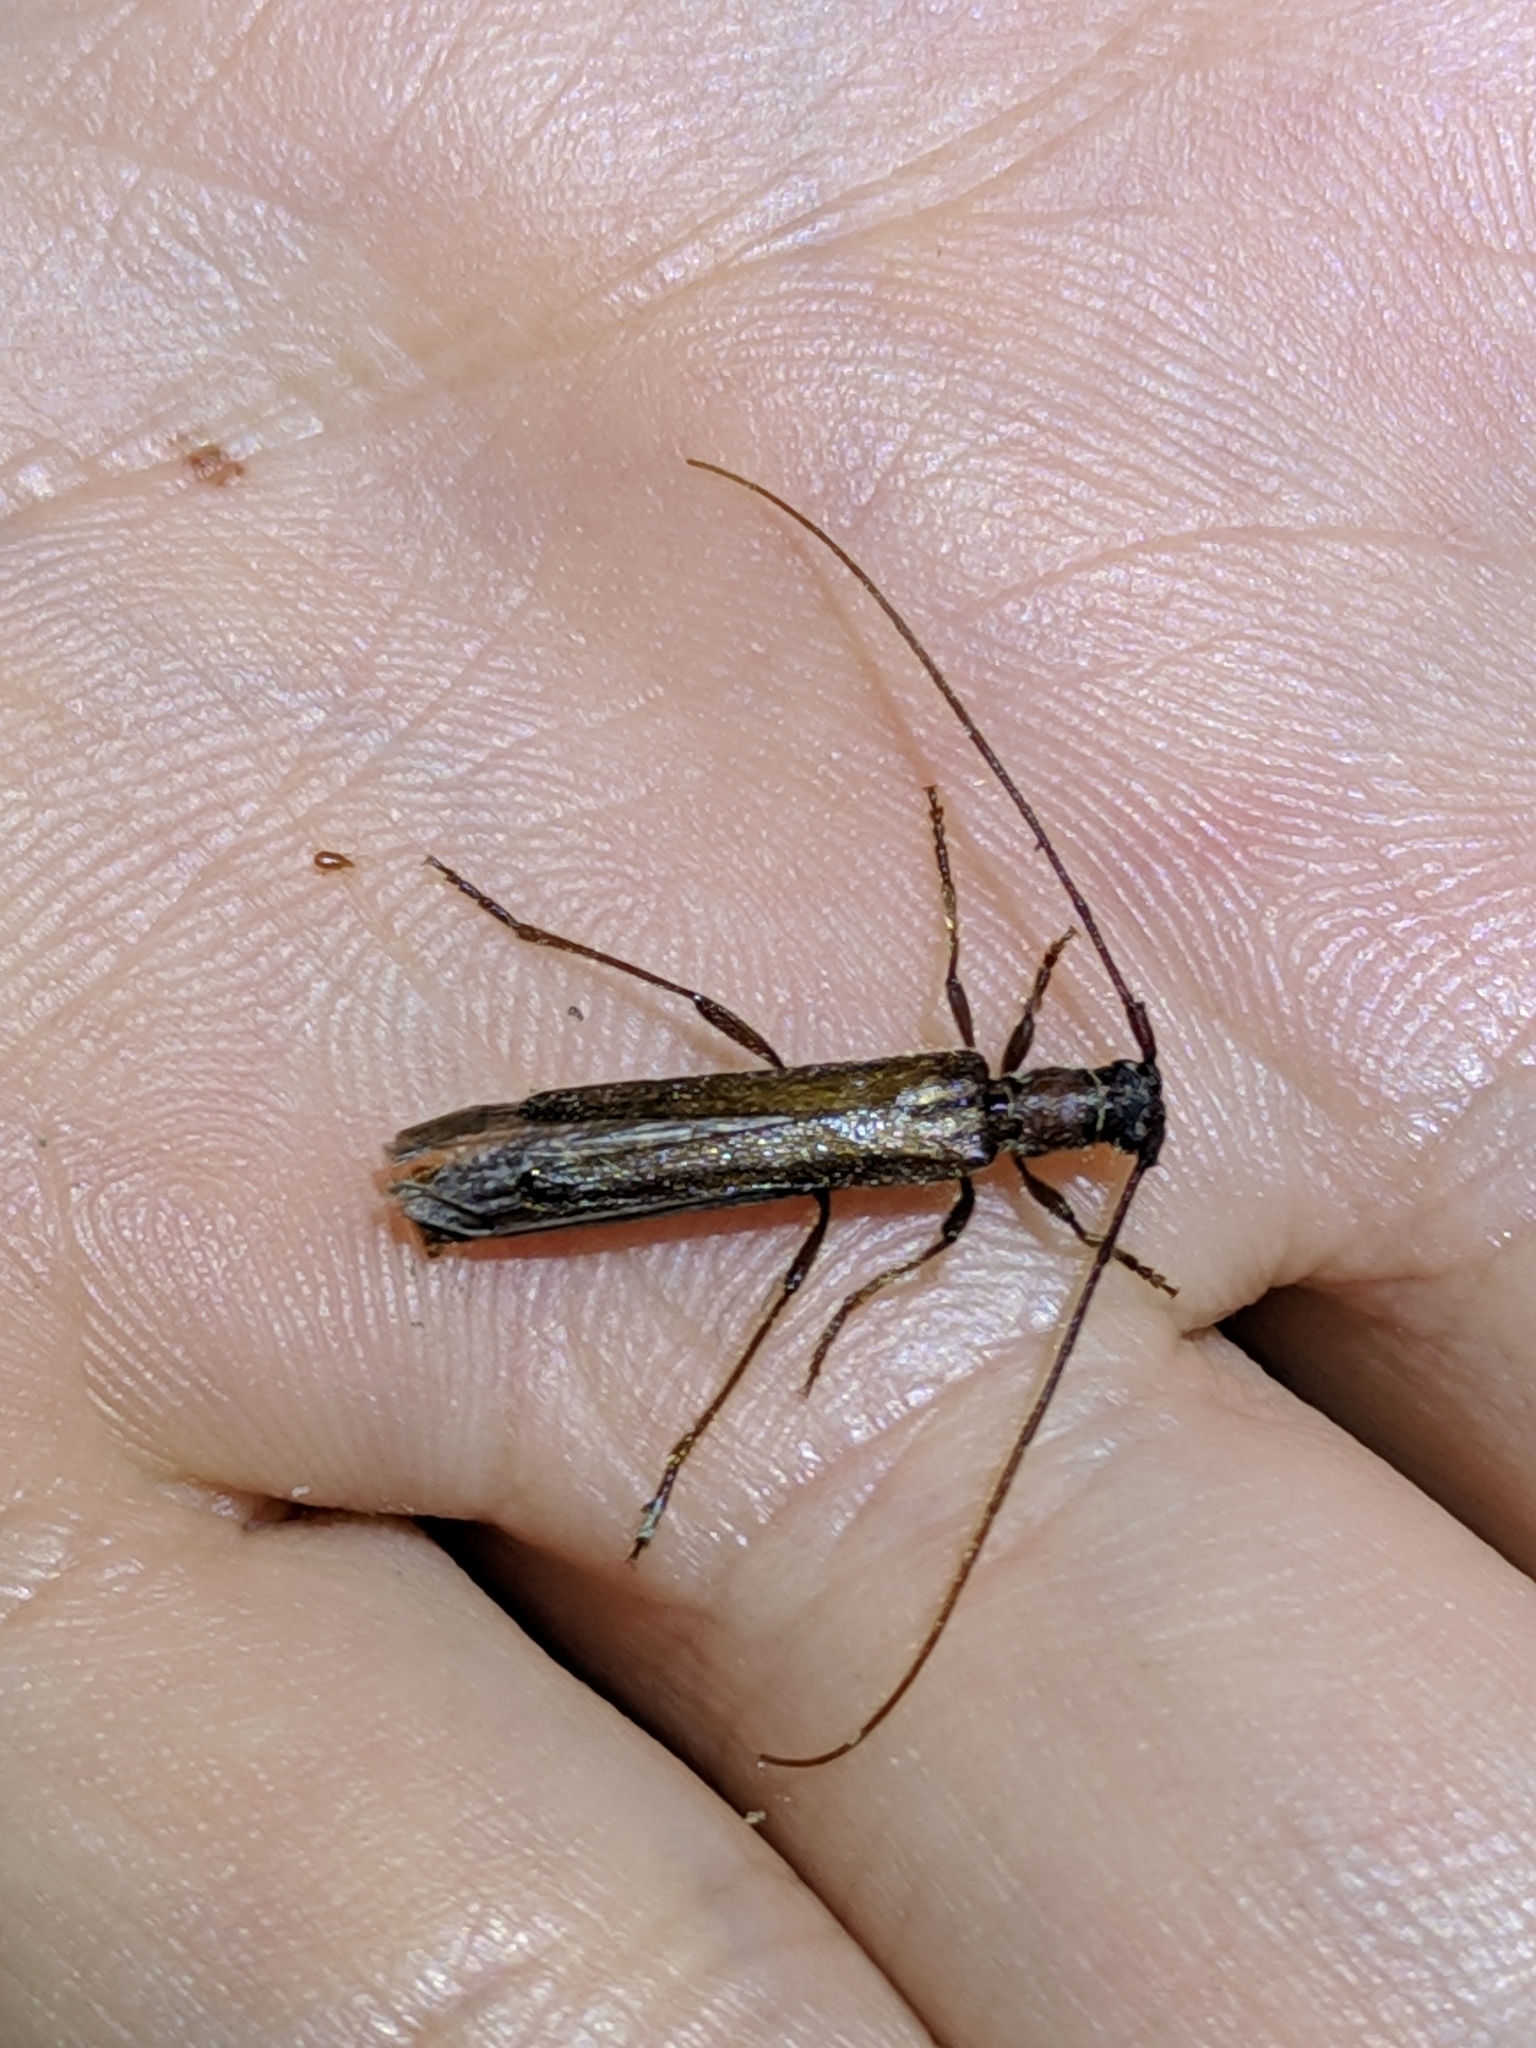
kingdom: Animalia
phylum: Arthropoda
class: Insecta
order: Coleoptera
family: Cerambycidae
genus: Styloxus
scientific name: Styloxus fulleri
